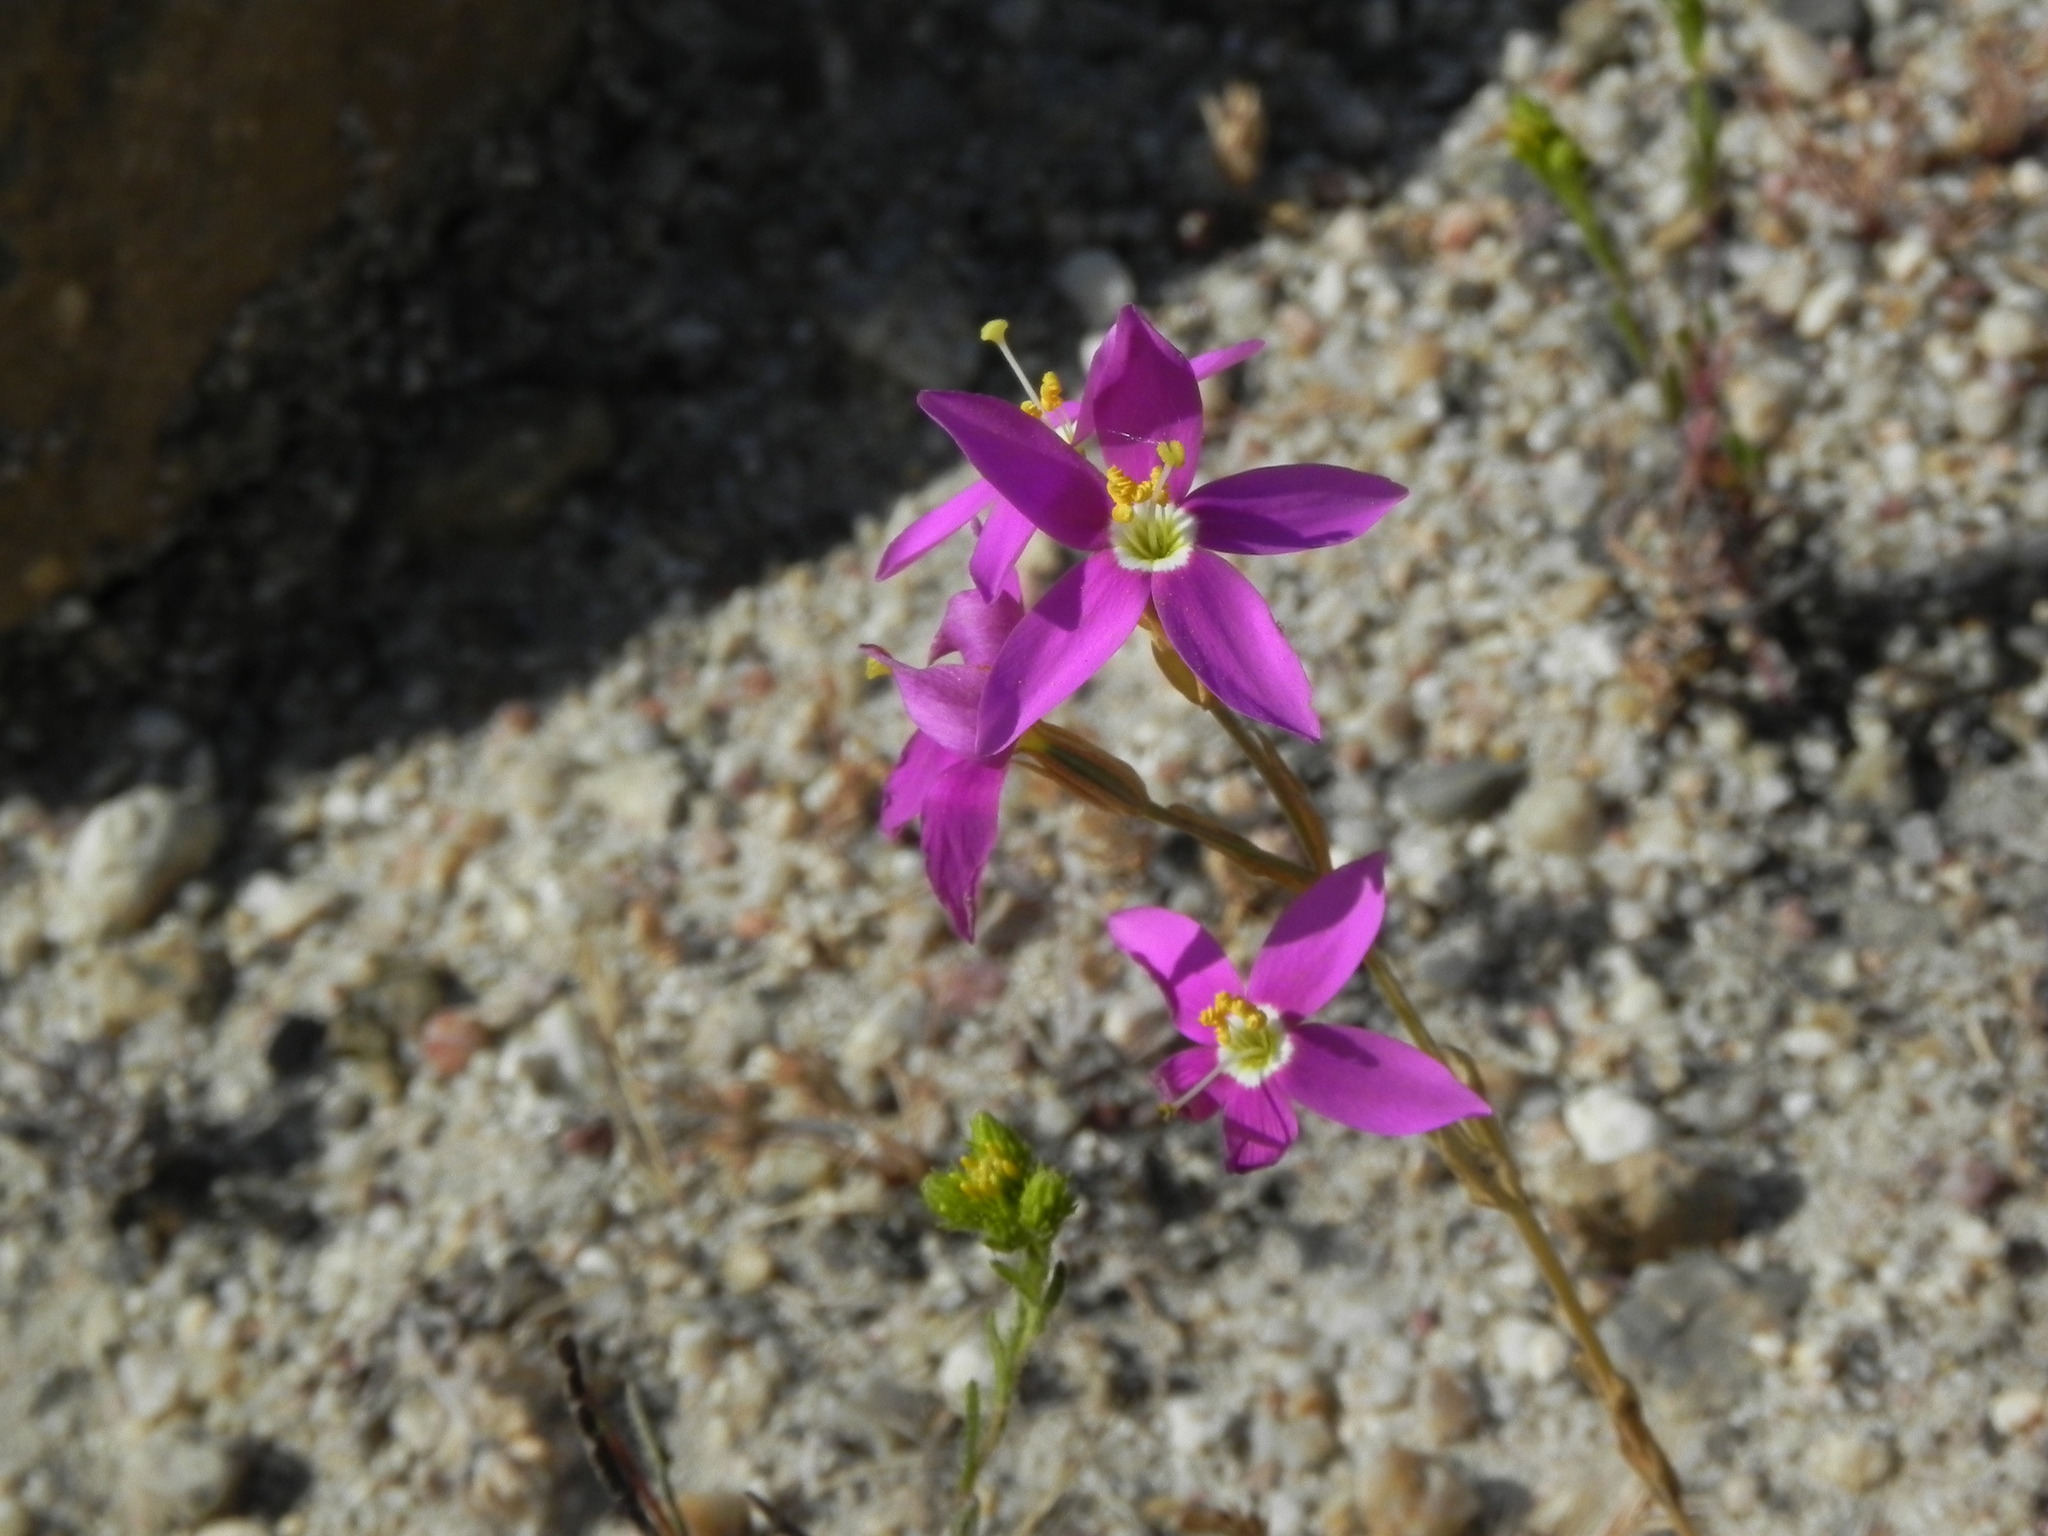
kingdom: Plantae
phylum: Tracheophyta
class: Magnoliopsida
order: Gentianales
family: Gentianaceae
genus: Zeltnera
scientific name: Zeltnera venusta
